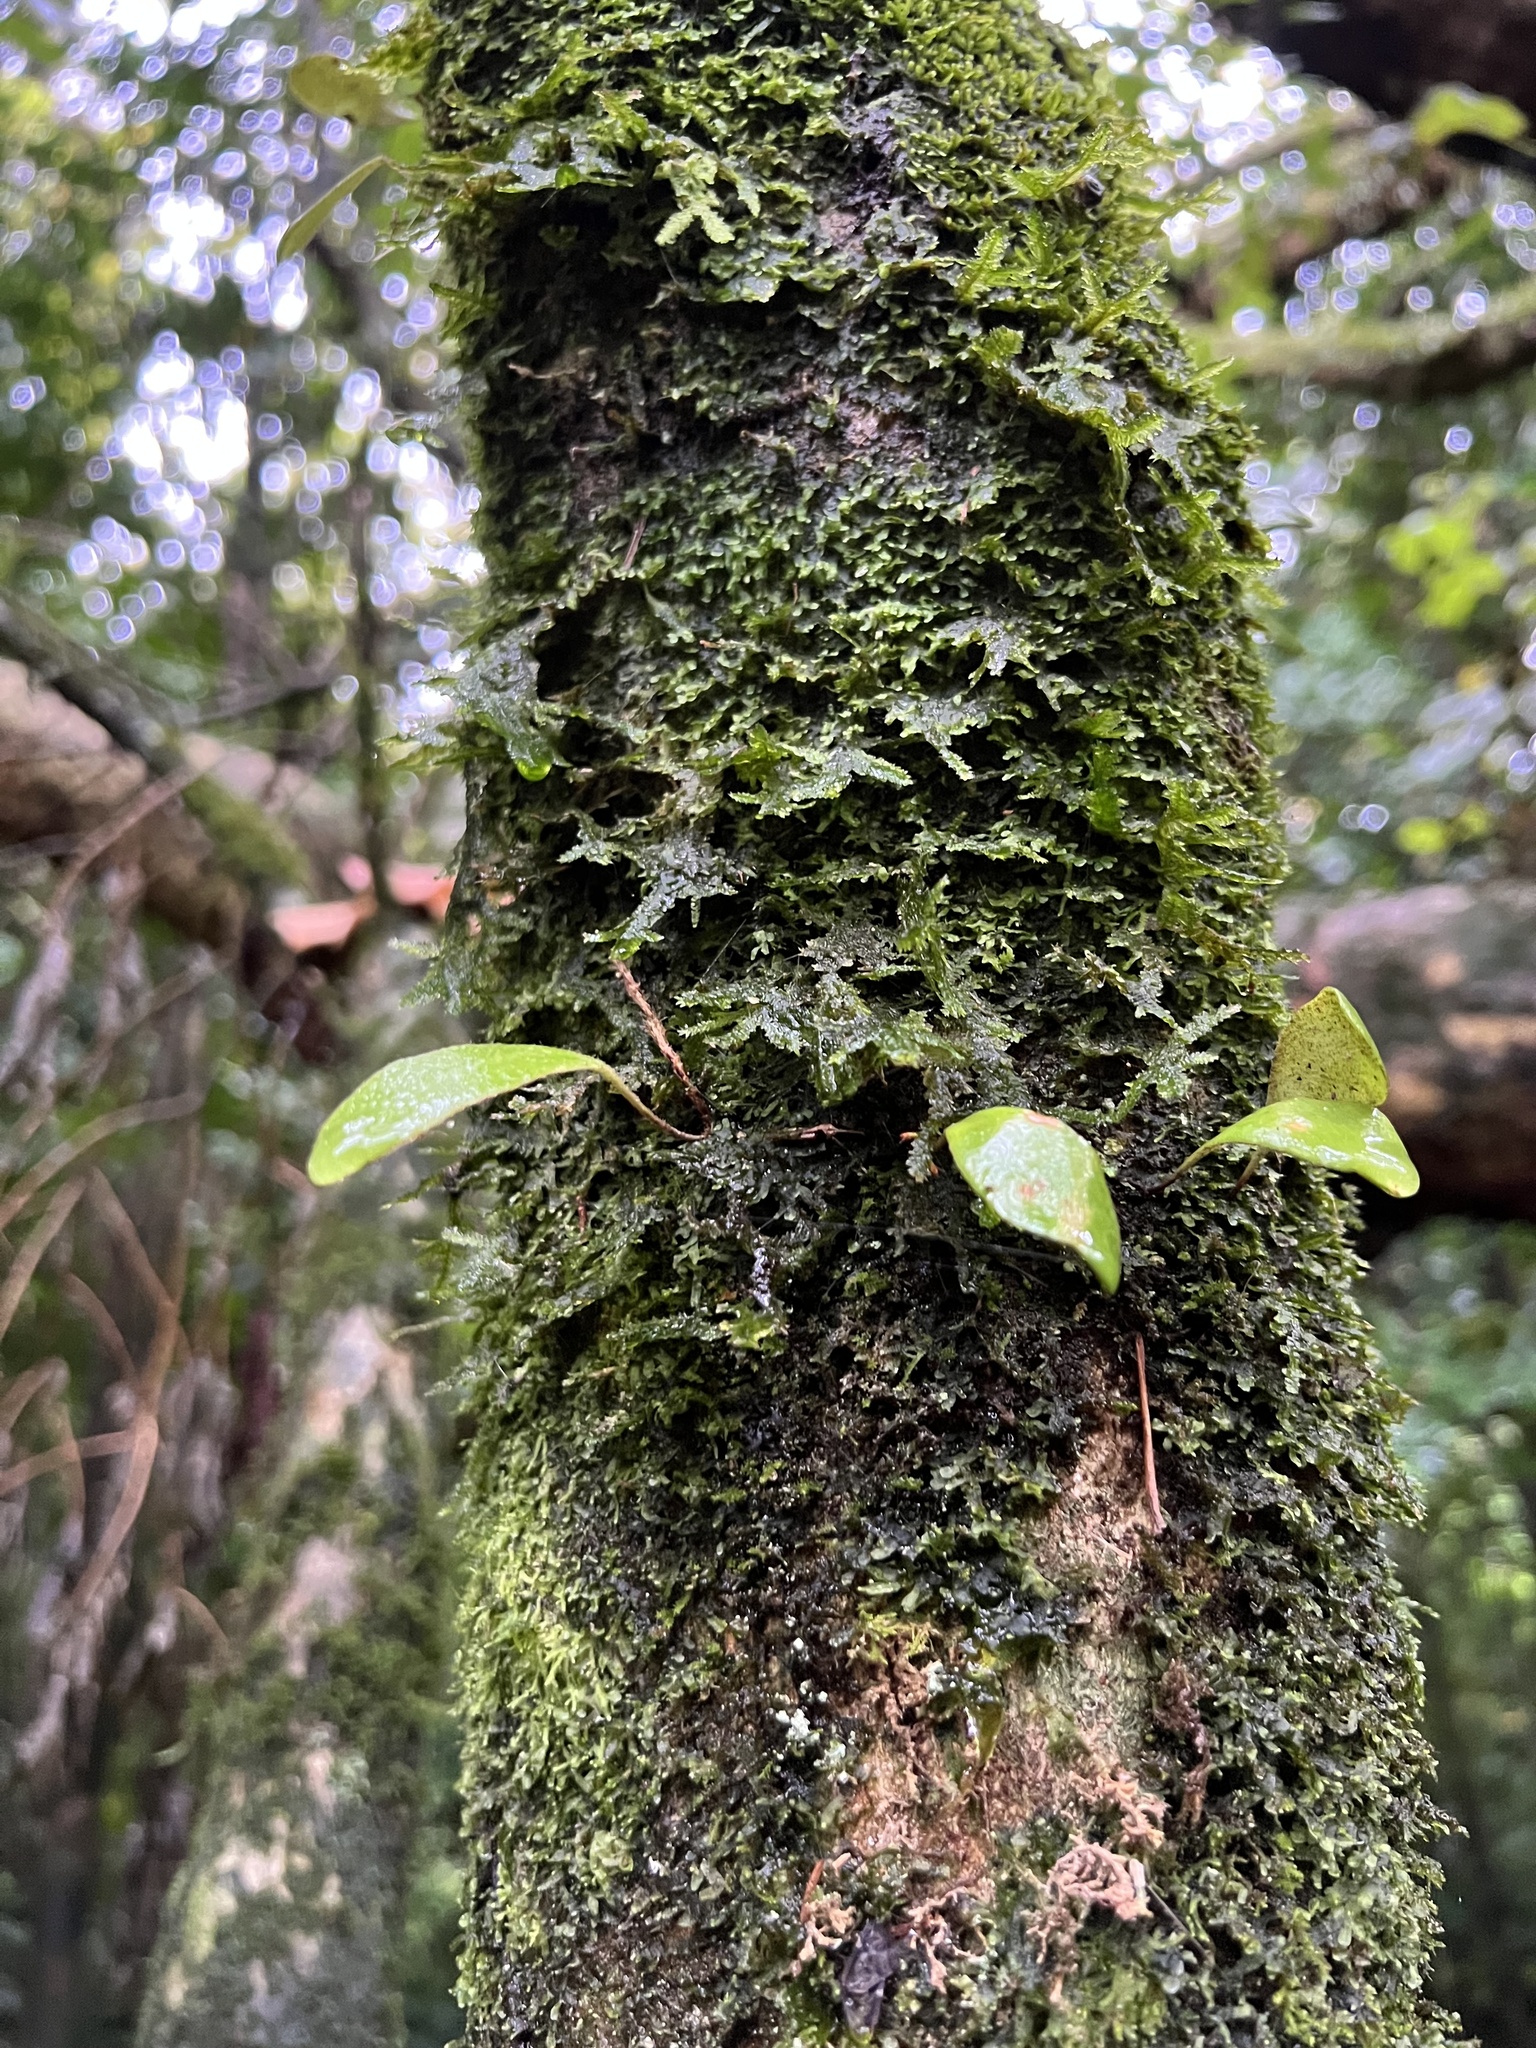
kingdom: Plantae
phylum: Tracheophyta
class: Polypodiopsida
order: Polypodiales
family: Polypodiaceae
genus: Pyrrosia
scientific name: Pyrrosia eleagnifolia
